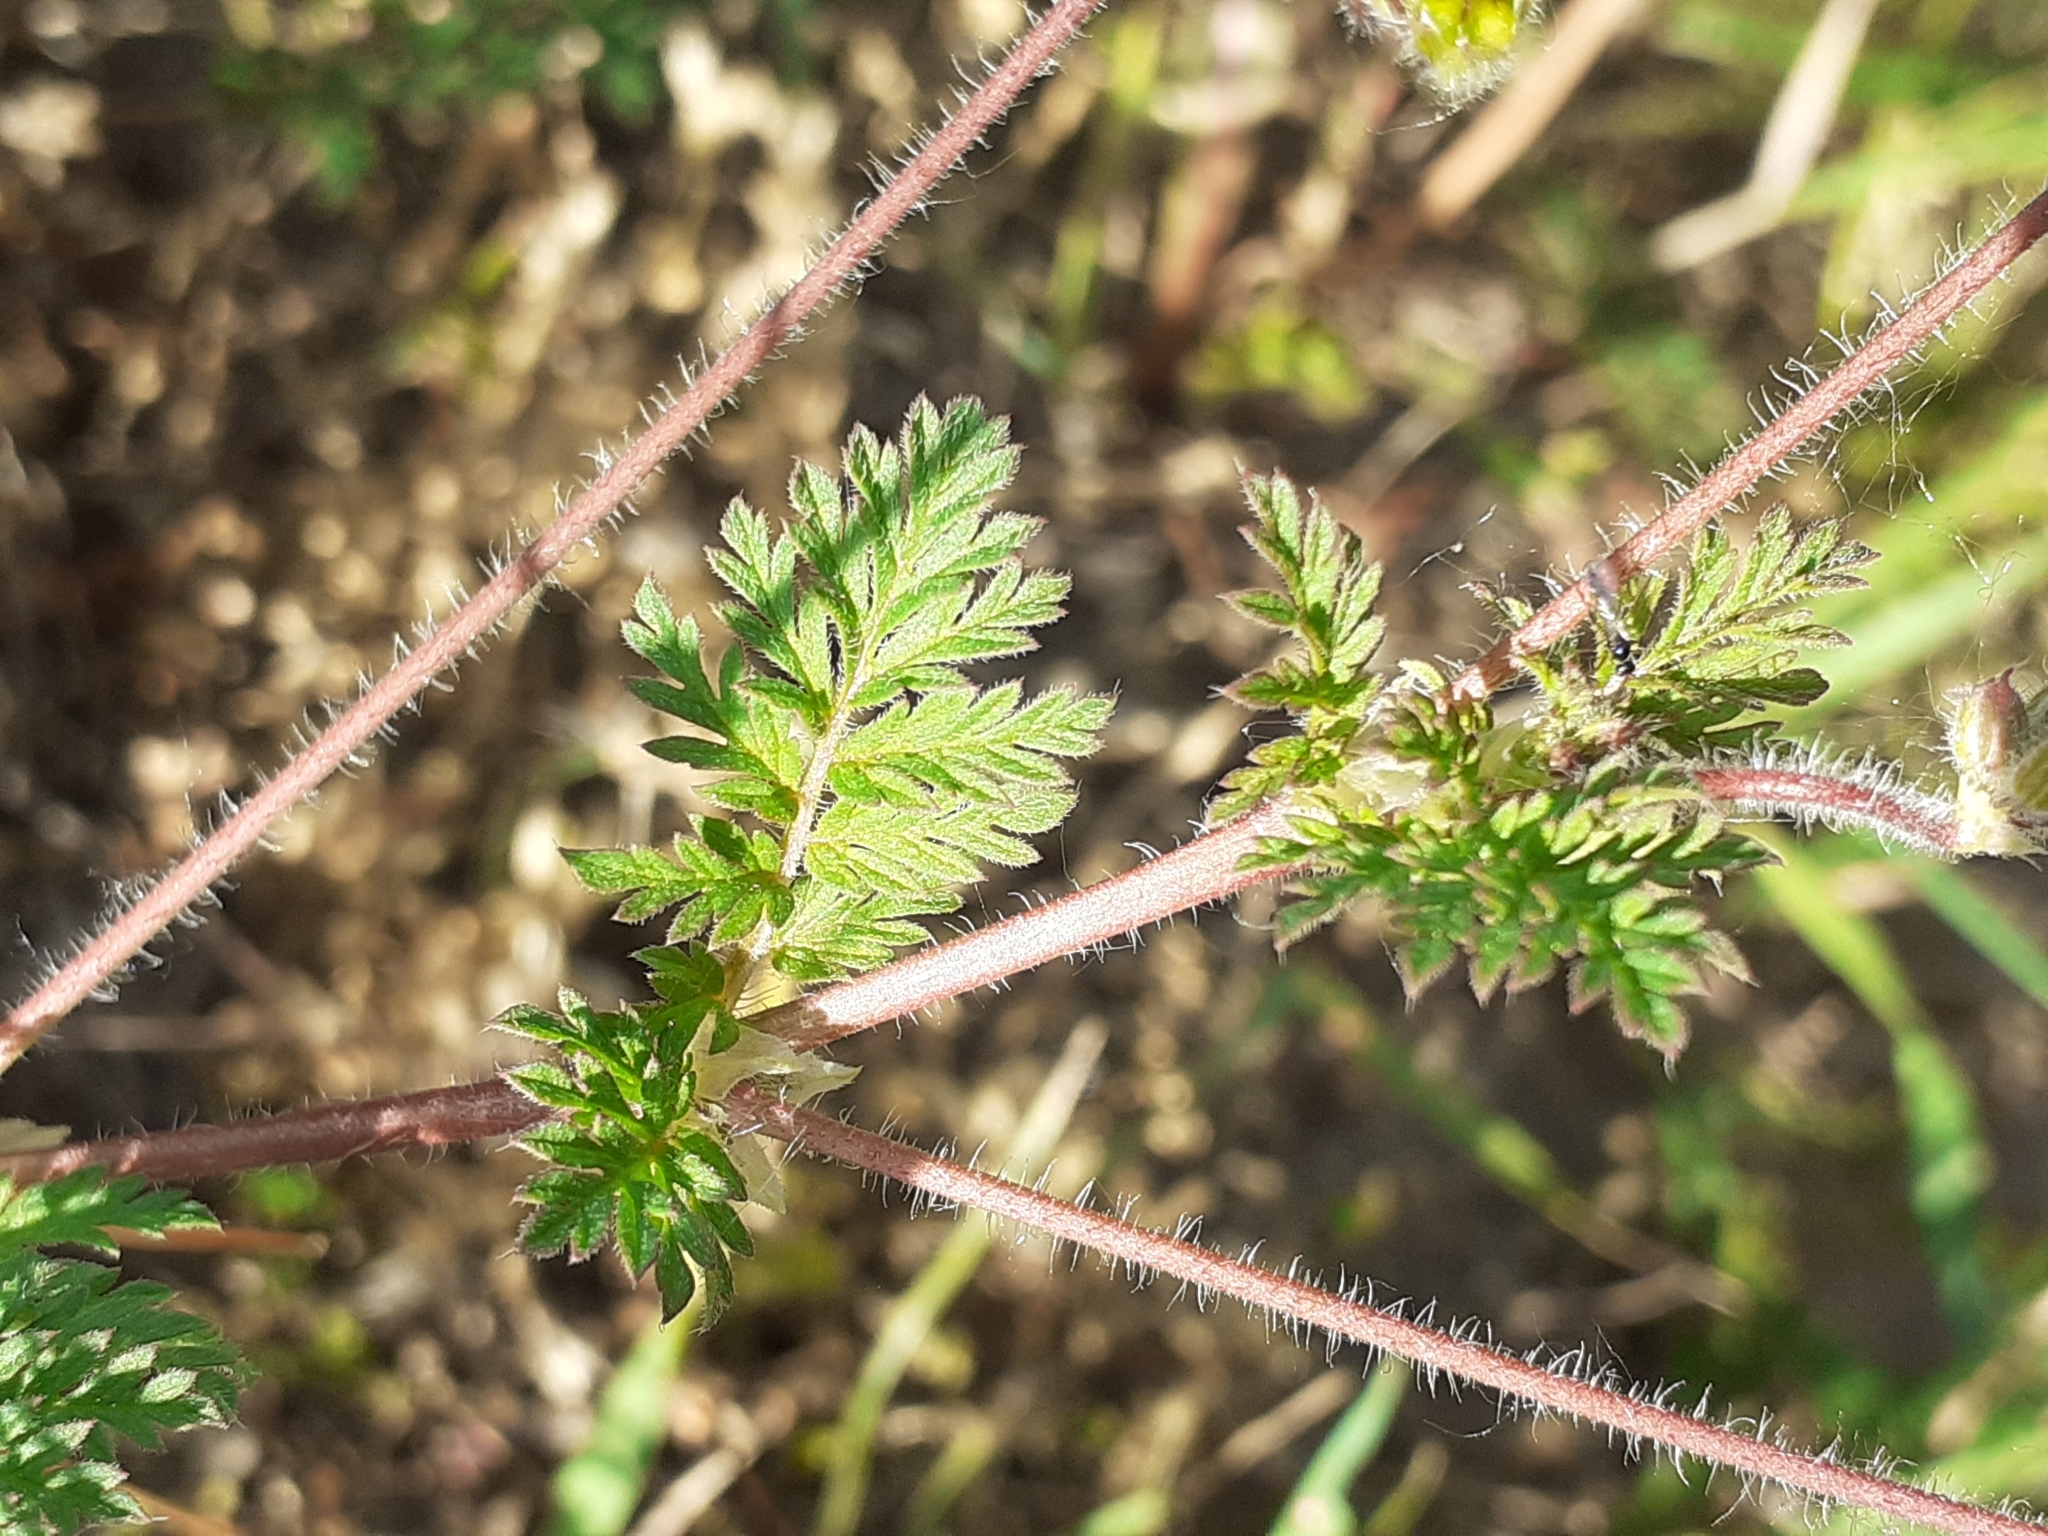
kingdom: Plantae
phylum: Tracheophyta
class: Magnoliopsida
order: Geraniales
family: Geraniaceae
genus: Erodium
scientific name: Erodium cicutarium
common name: Common stork's-bill
